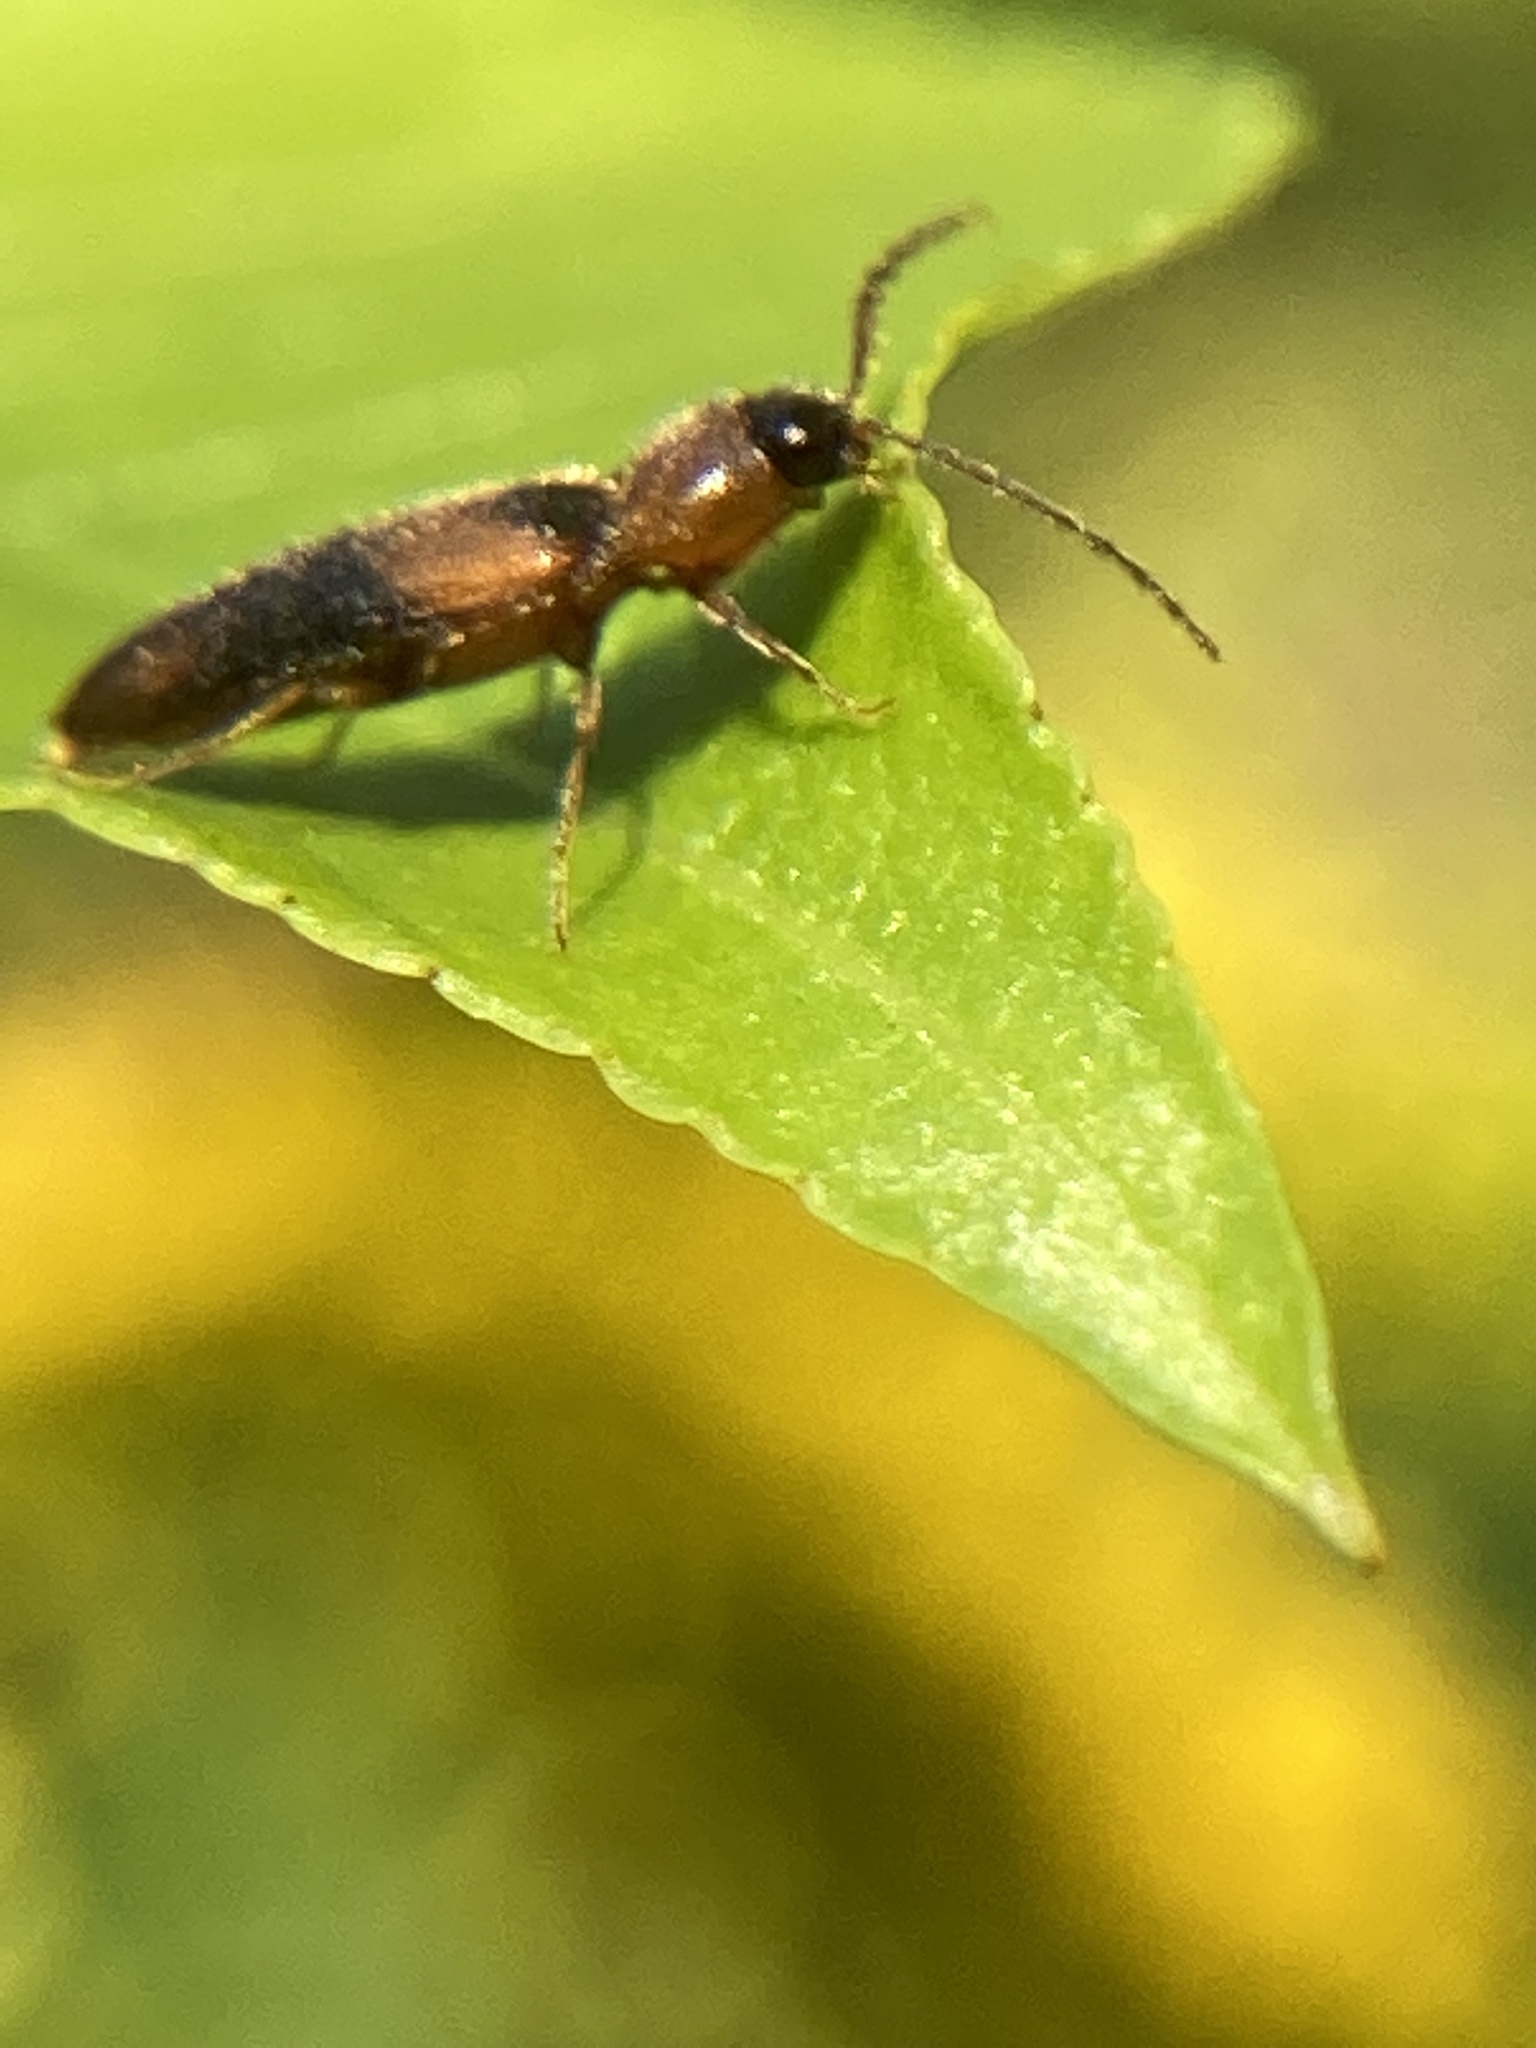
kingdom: Animalia
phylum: Arthropoda
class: Insecta
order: Coleoptera
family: Elateridae
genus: Ampedus
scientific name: Ampedus areolatus
